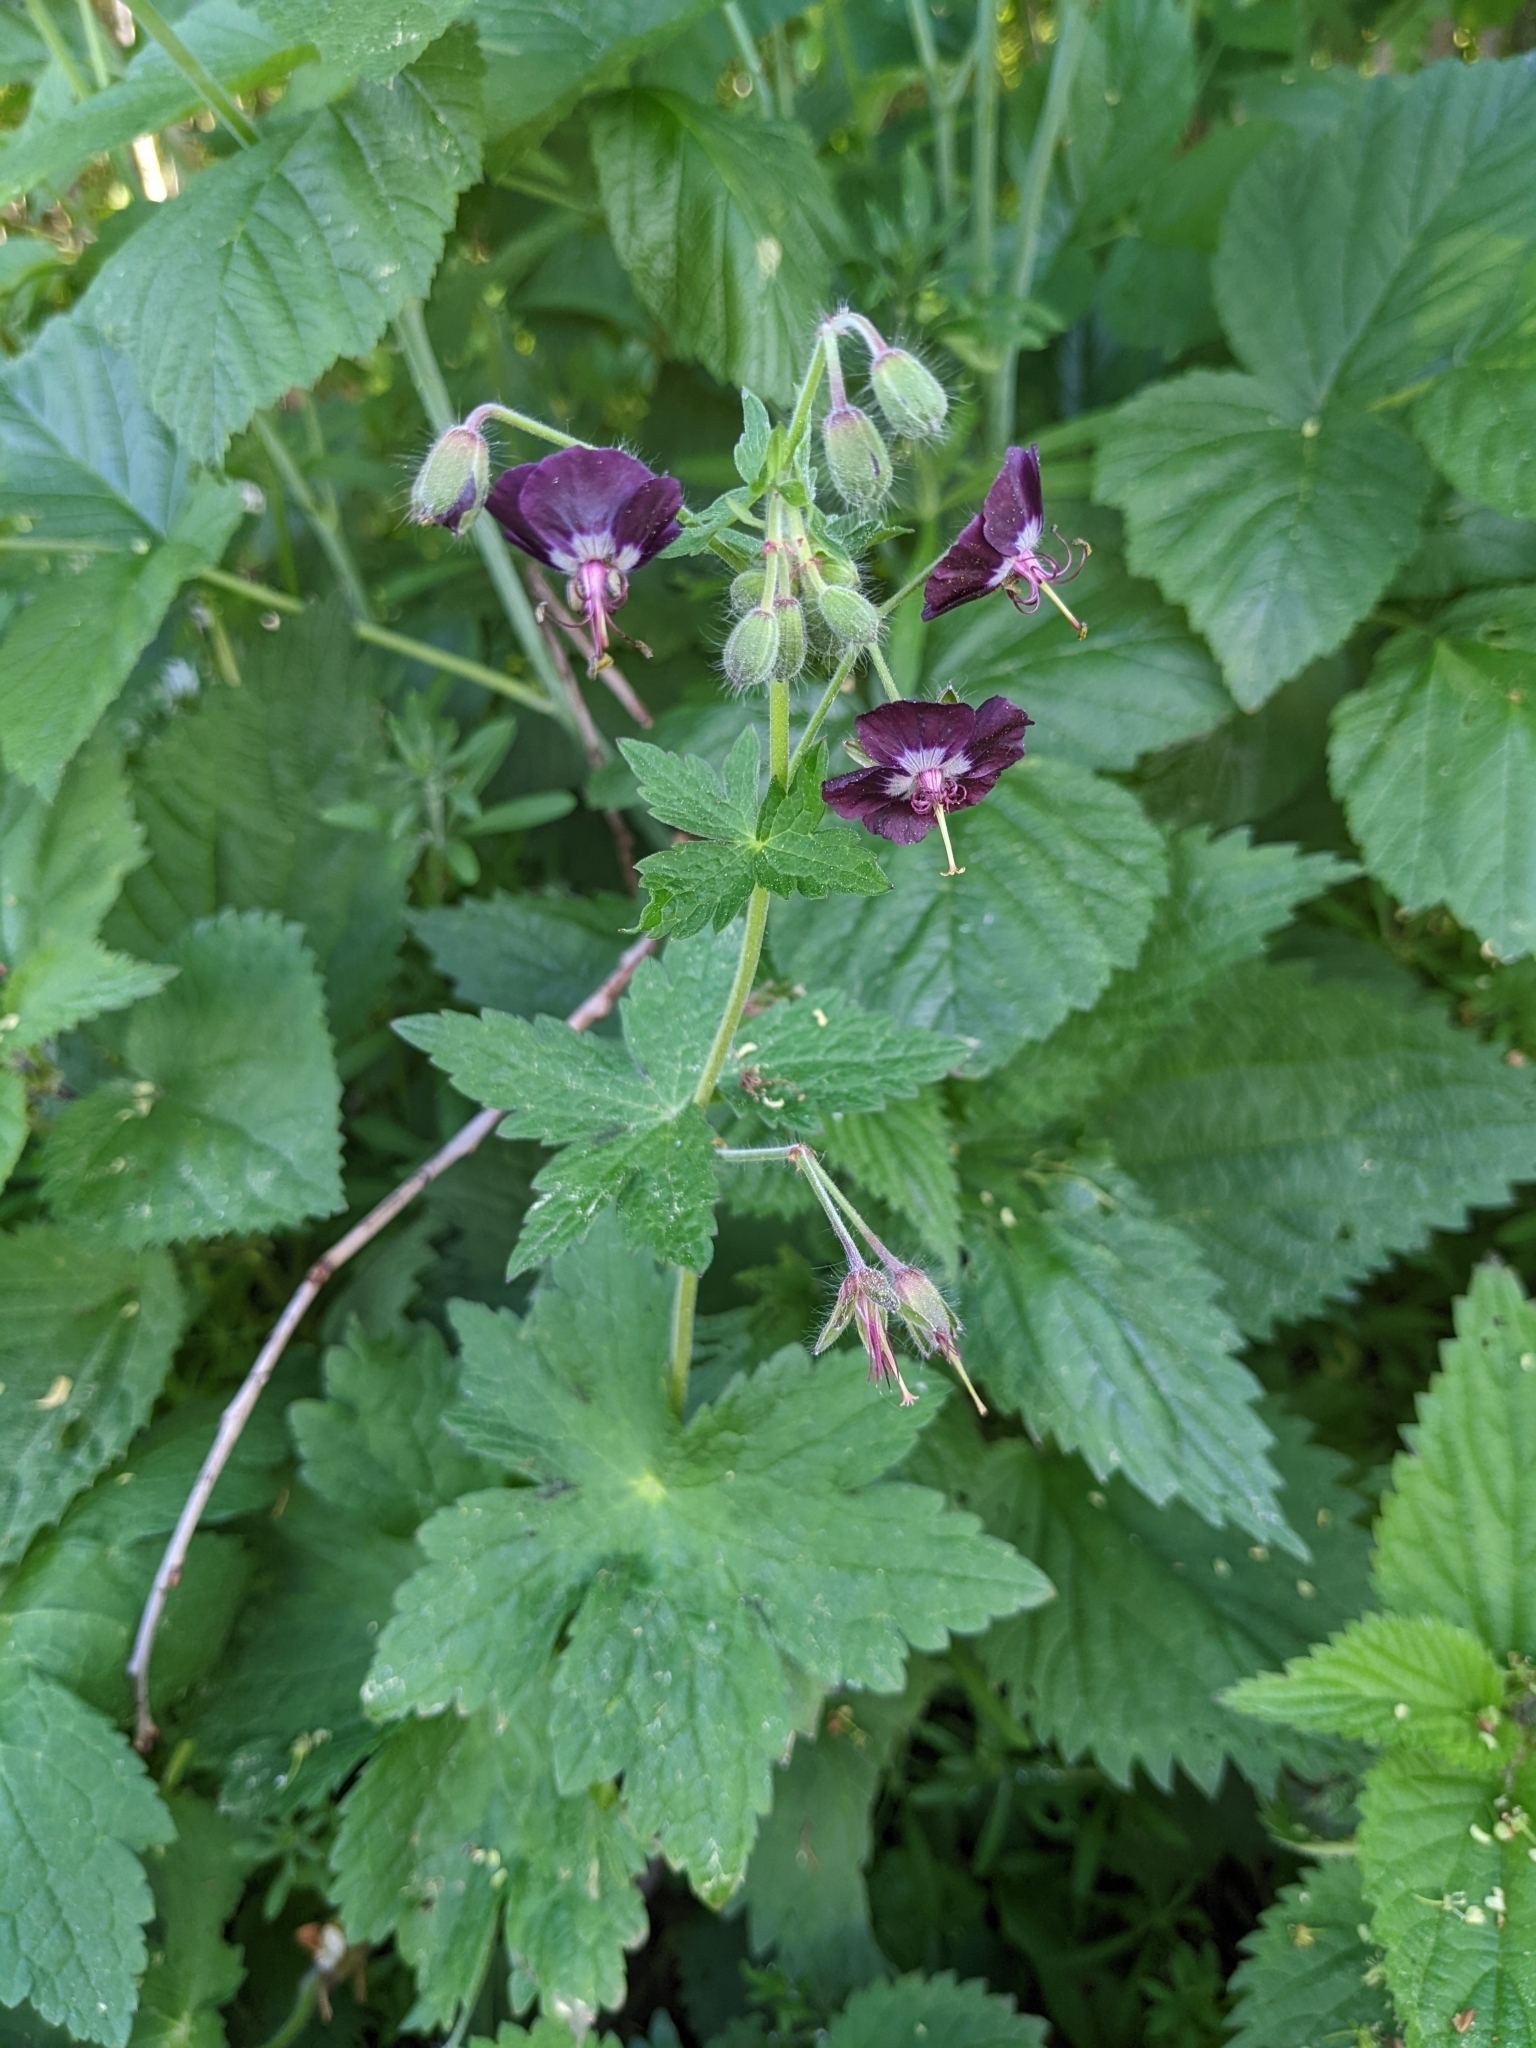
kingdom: Plantae
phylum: Tracheophyta
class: Magnoliopsida
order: Geraniales
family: Geraniaceae
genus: Geranium
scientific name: Geranium phaeum
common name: Dusky crane's-bill
